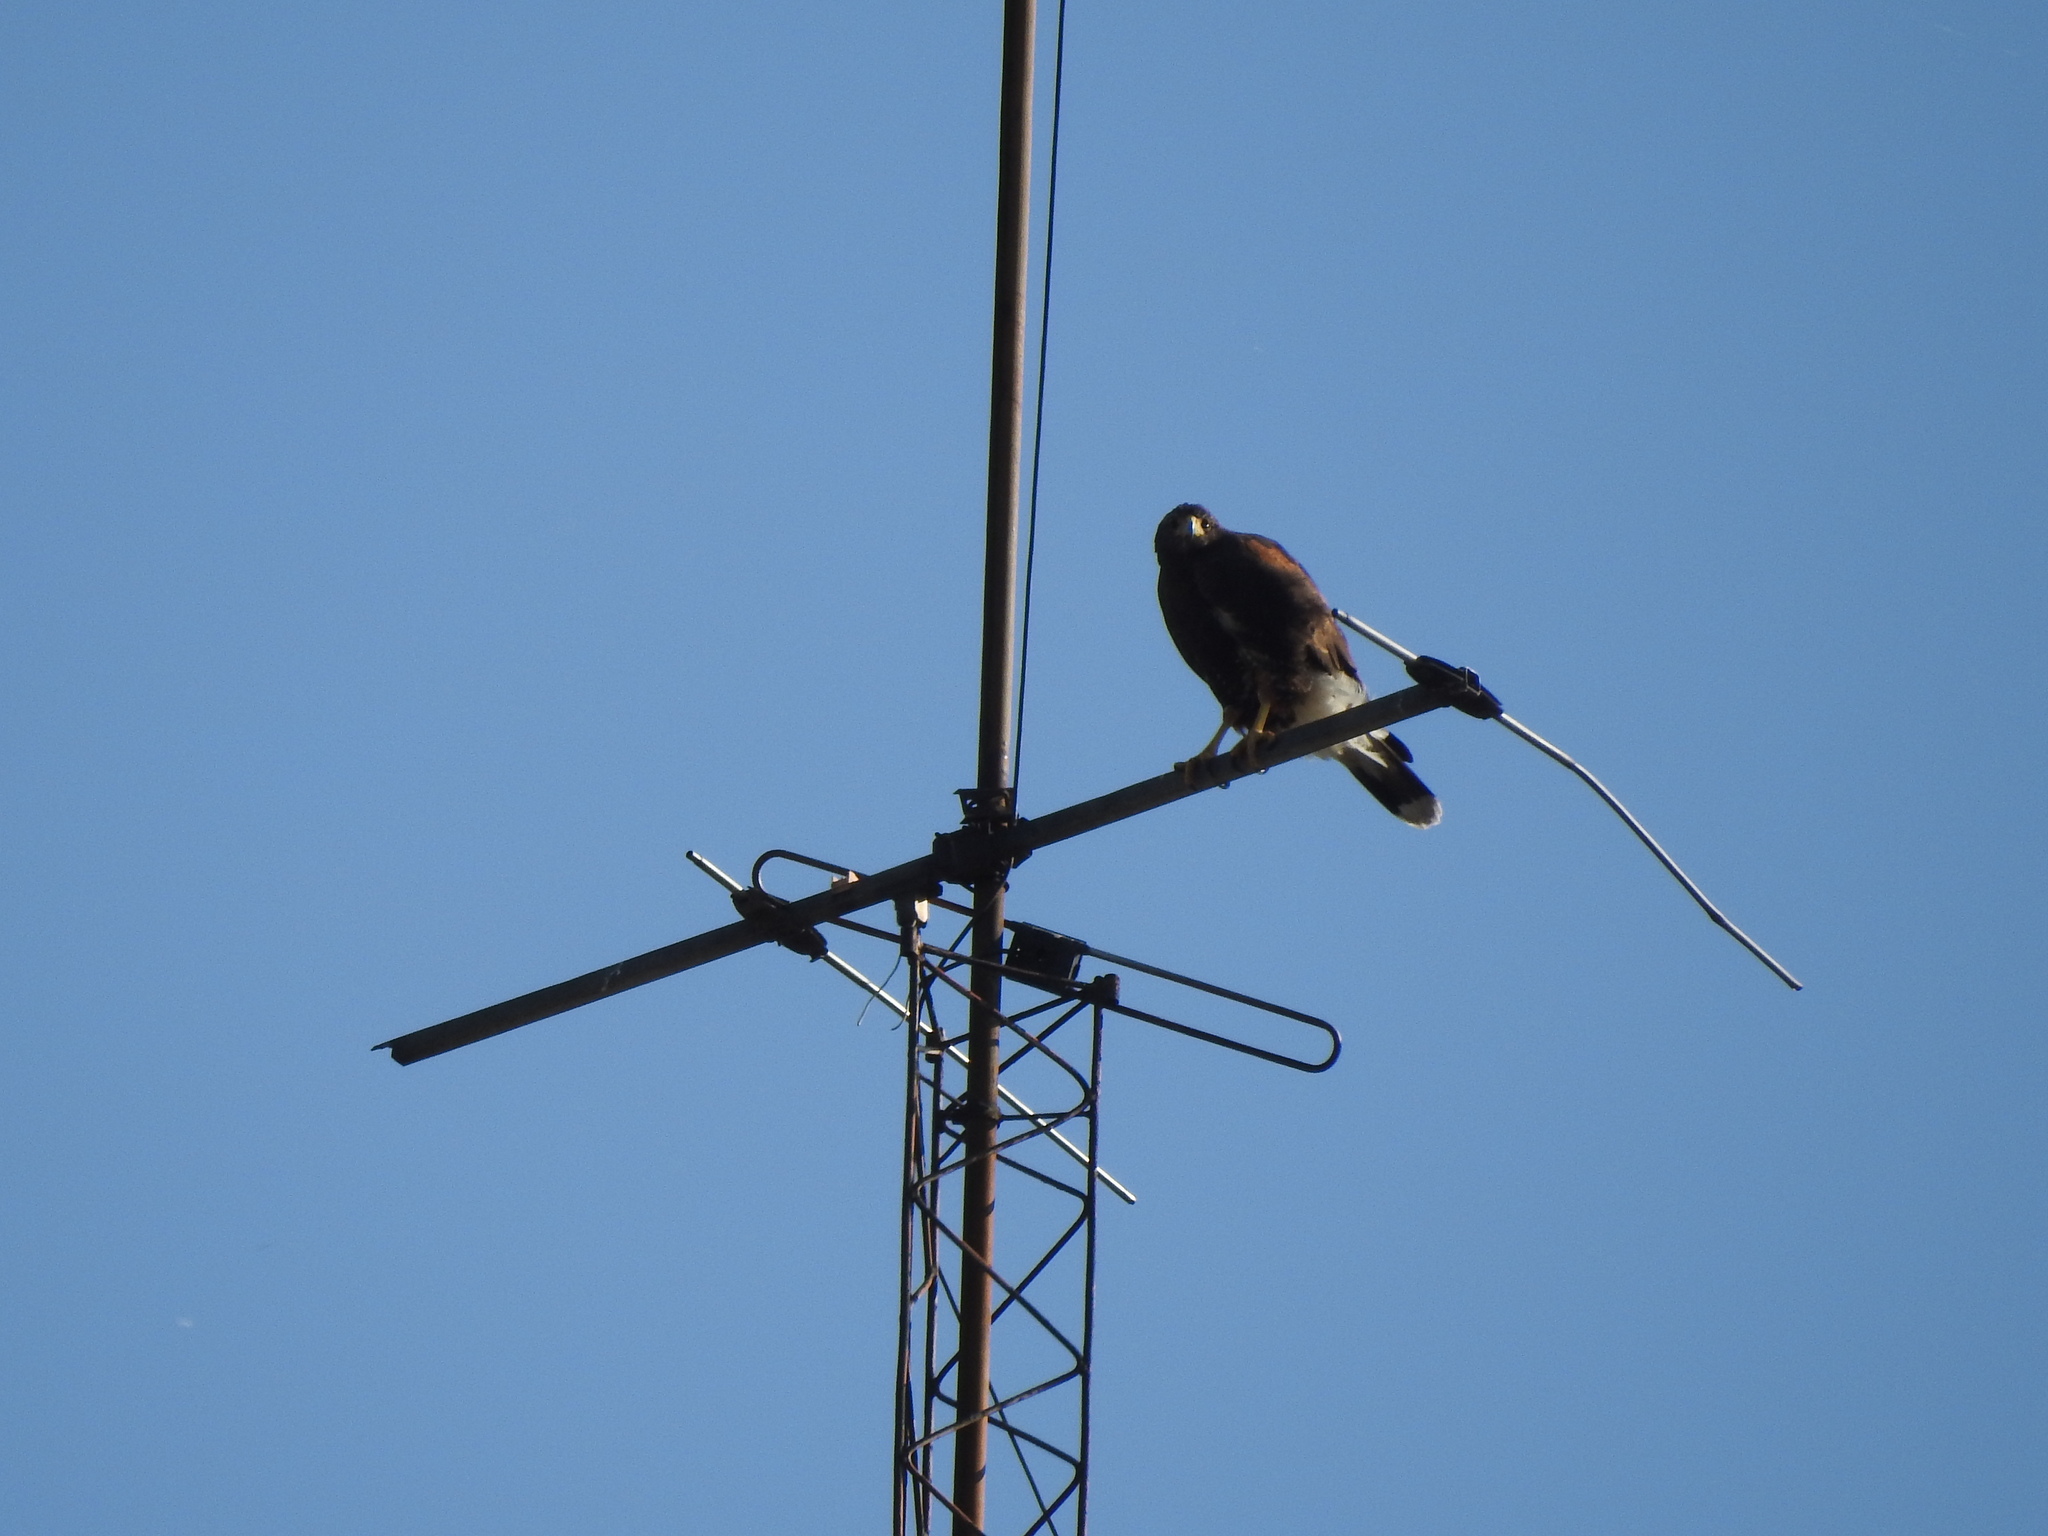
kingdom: Animalia
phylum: Chordata
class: Aves
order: Accipitriformes
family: Accipitridae
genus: Parabuteo
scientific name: Parabuteo unicinctus
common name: Harris's hawk
